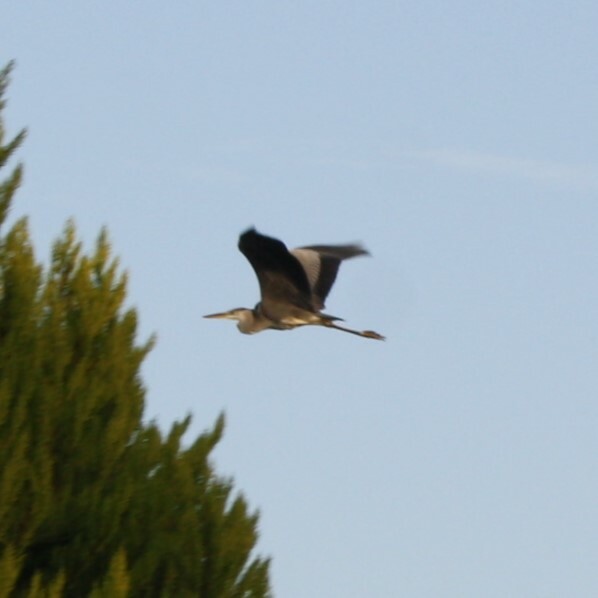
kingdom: Animalia
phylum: Chordata
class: Aves
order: Pelecaniformes
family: Ardeidae
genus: Ardea
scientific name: Ardea cinerea
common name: Grey heron
